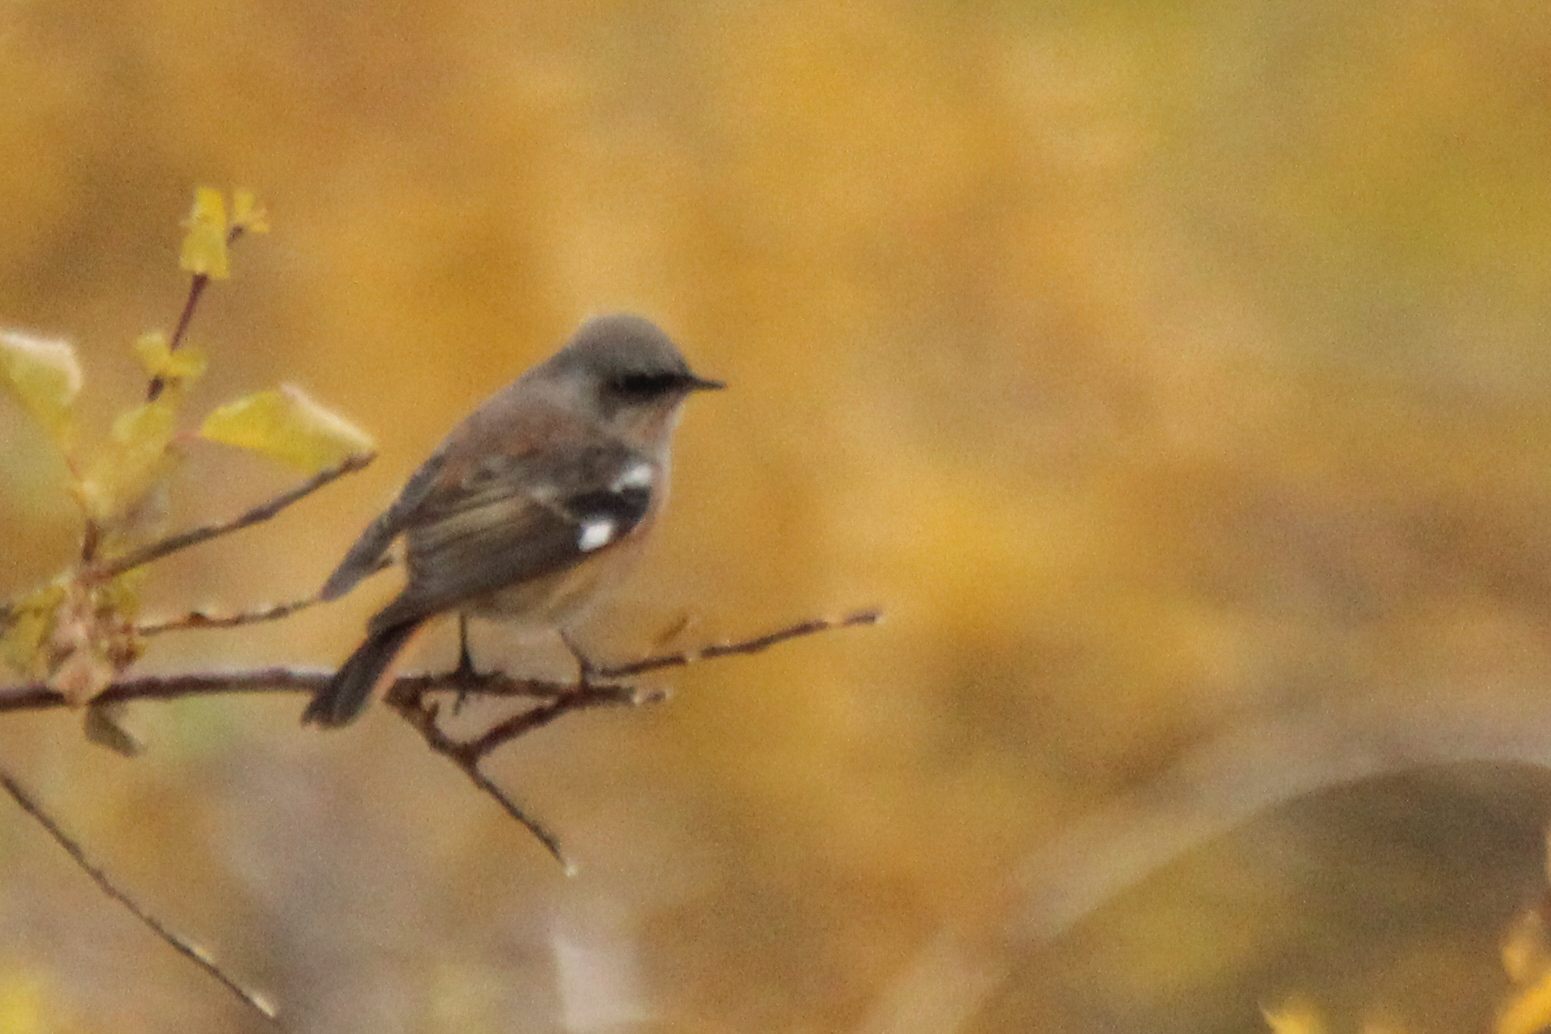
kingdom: Animalia
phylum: Chordata
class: Aves
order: Passeriformes
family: Muscicapidae
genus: Phoenicurus
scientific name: Phoenicurus erythronotus
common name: Eversmann's redstart
